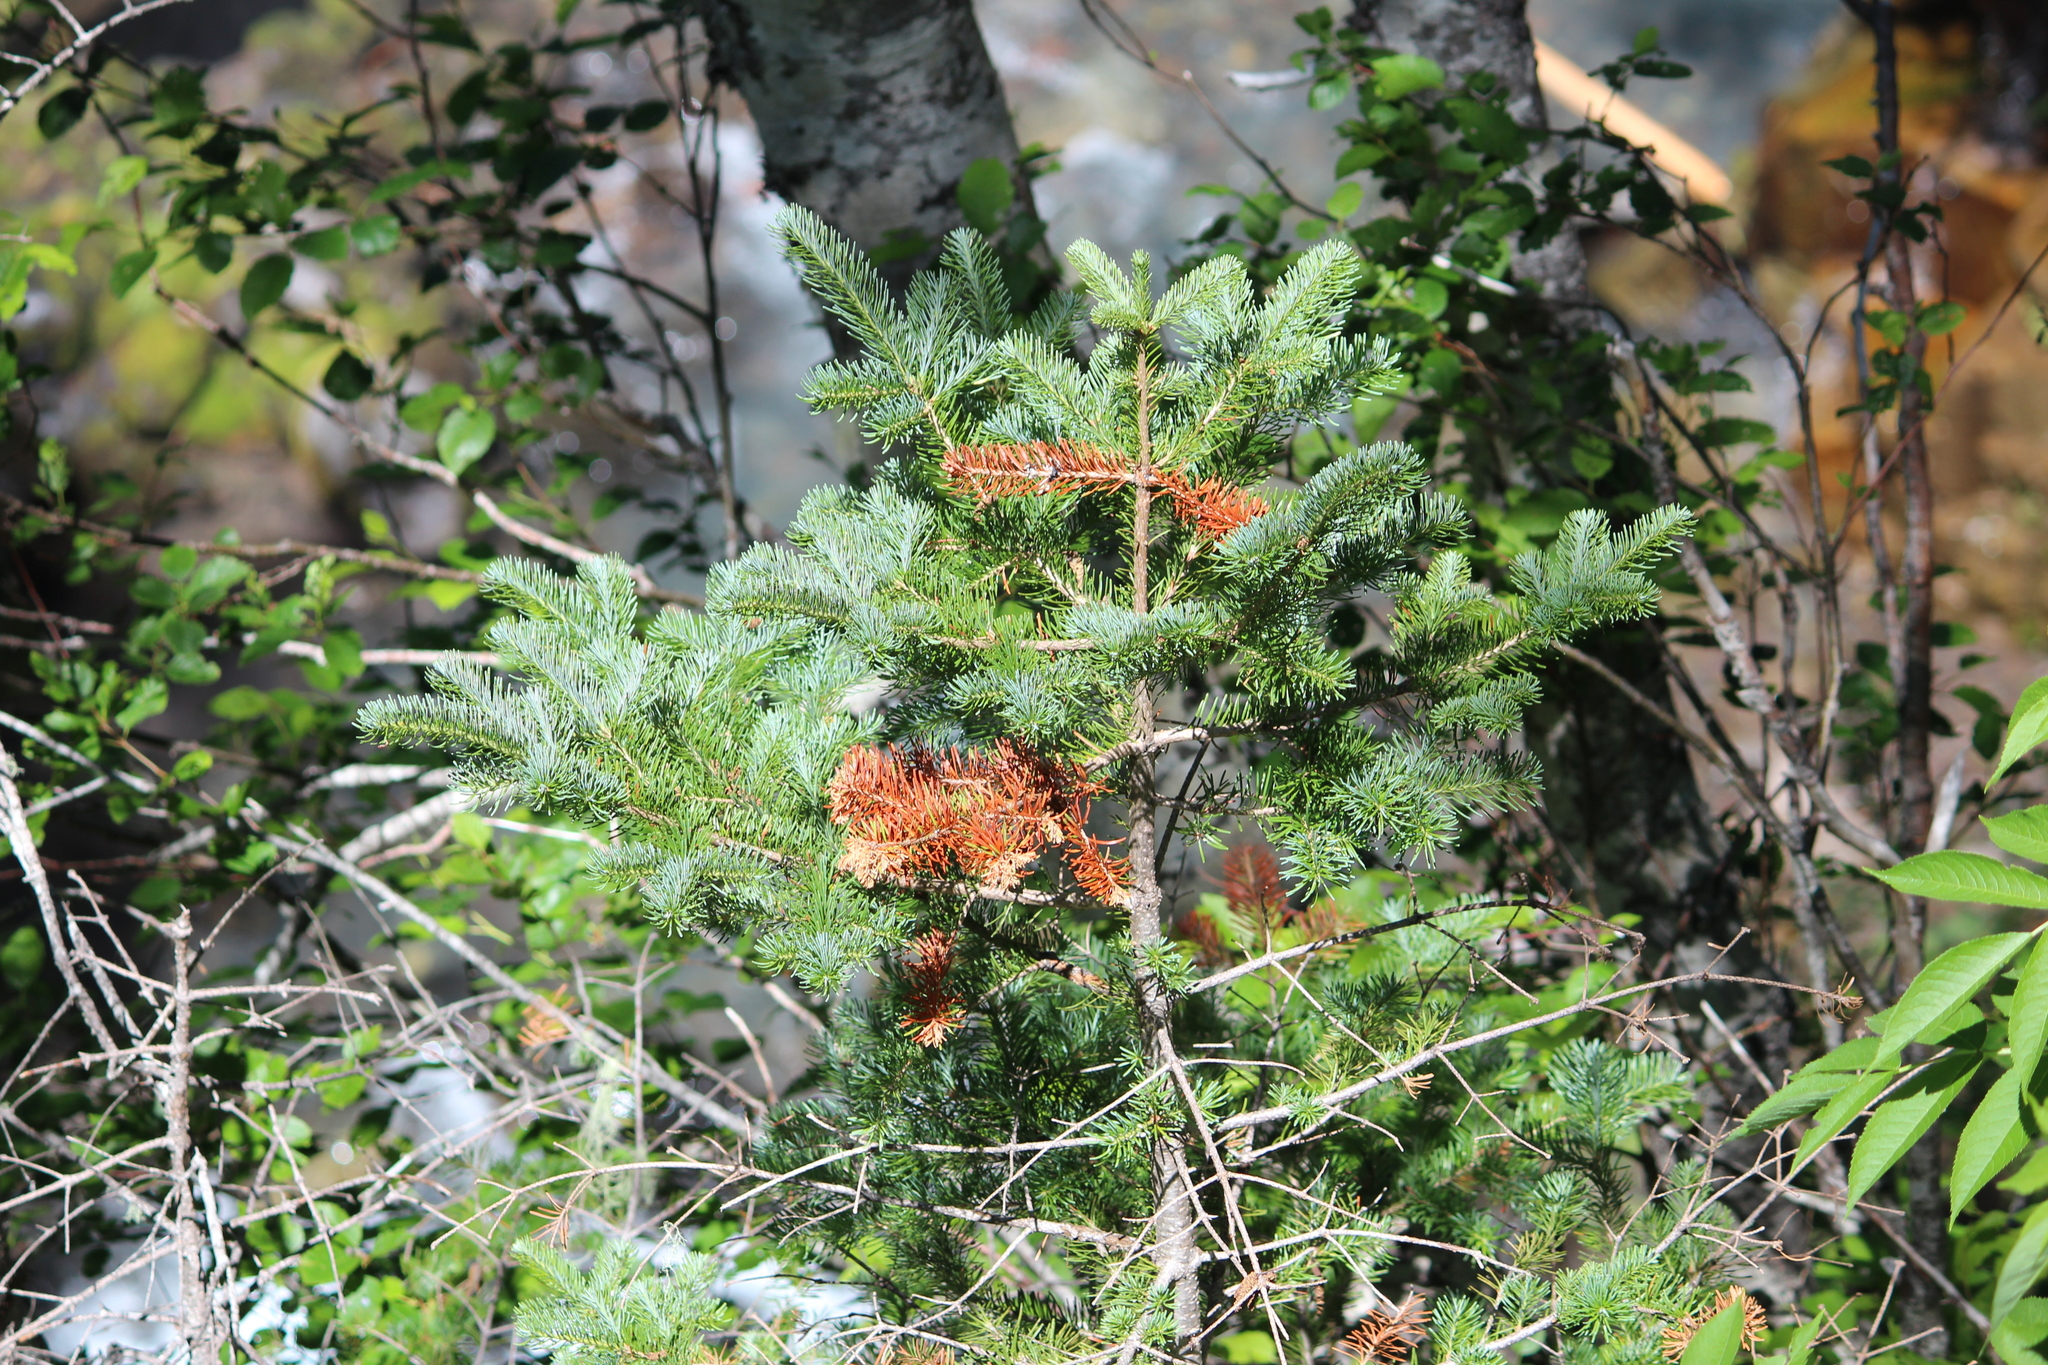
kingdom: Plantae
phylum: Tracheophyta
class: Pinopsida
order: Pinales
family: Pinaceae
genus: Abies
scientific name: Abies lasiocarpa
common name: Subalpine fir
